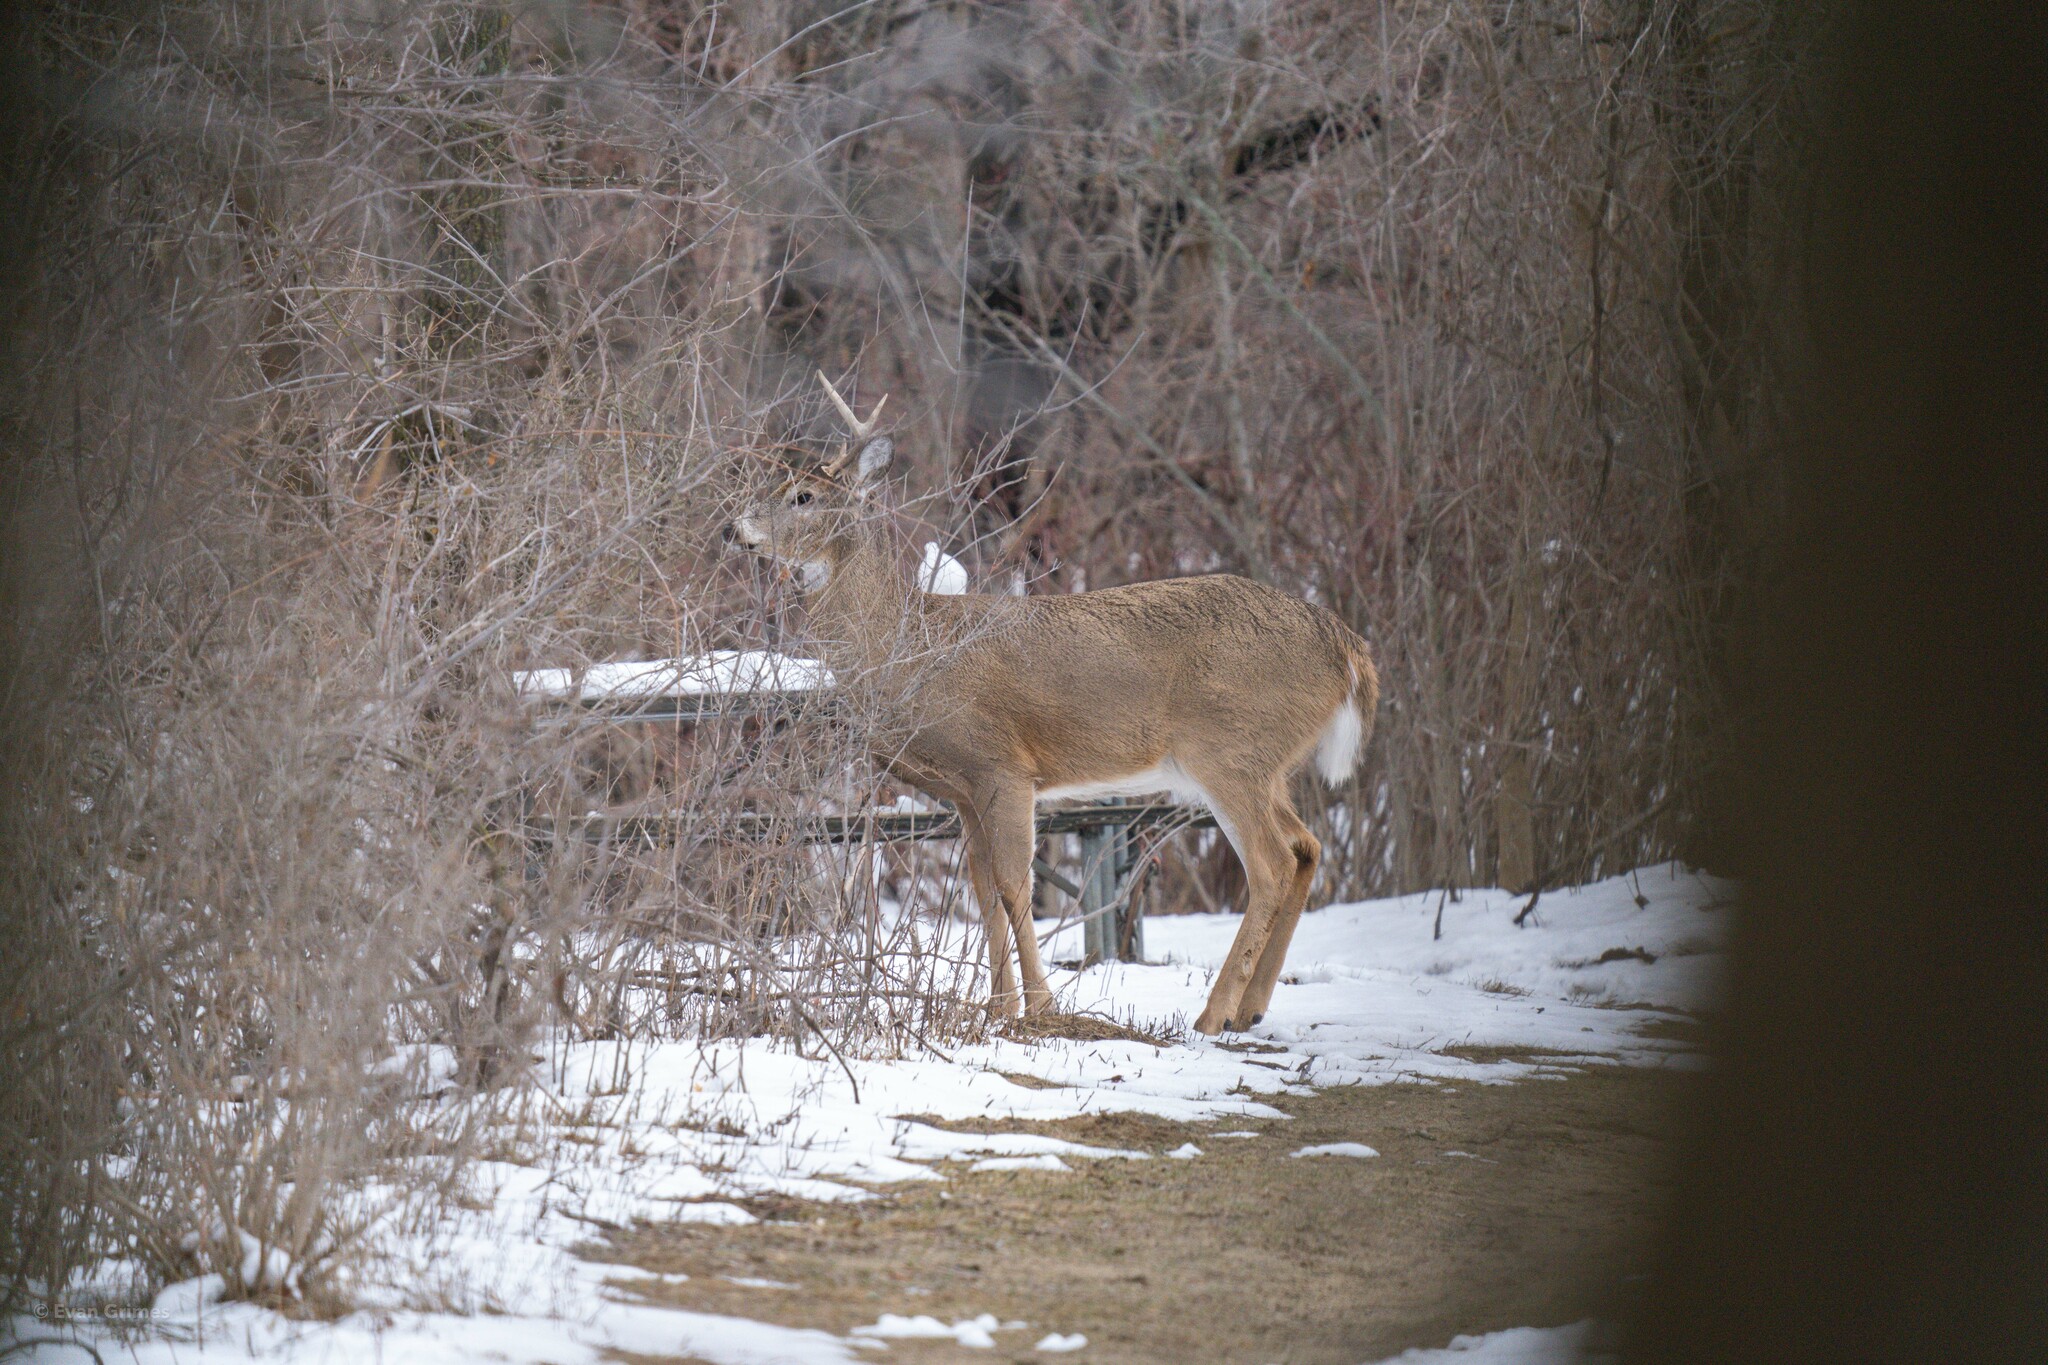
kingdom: Animalia
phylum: Chordata
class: Mammalia
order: Artiodactyla
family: Cervidae
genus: Odocoileus
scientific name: Odocoileus virginianus
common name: White-tailed deer
